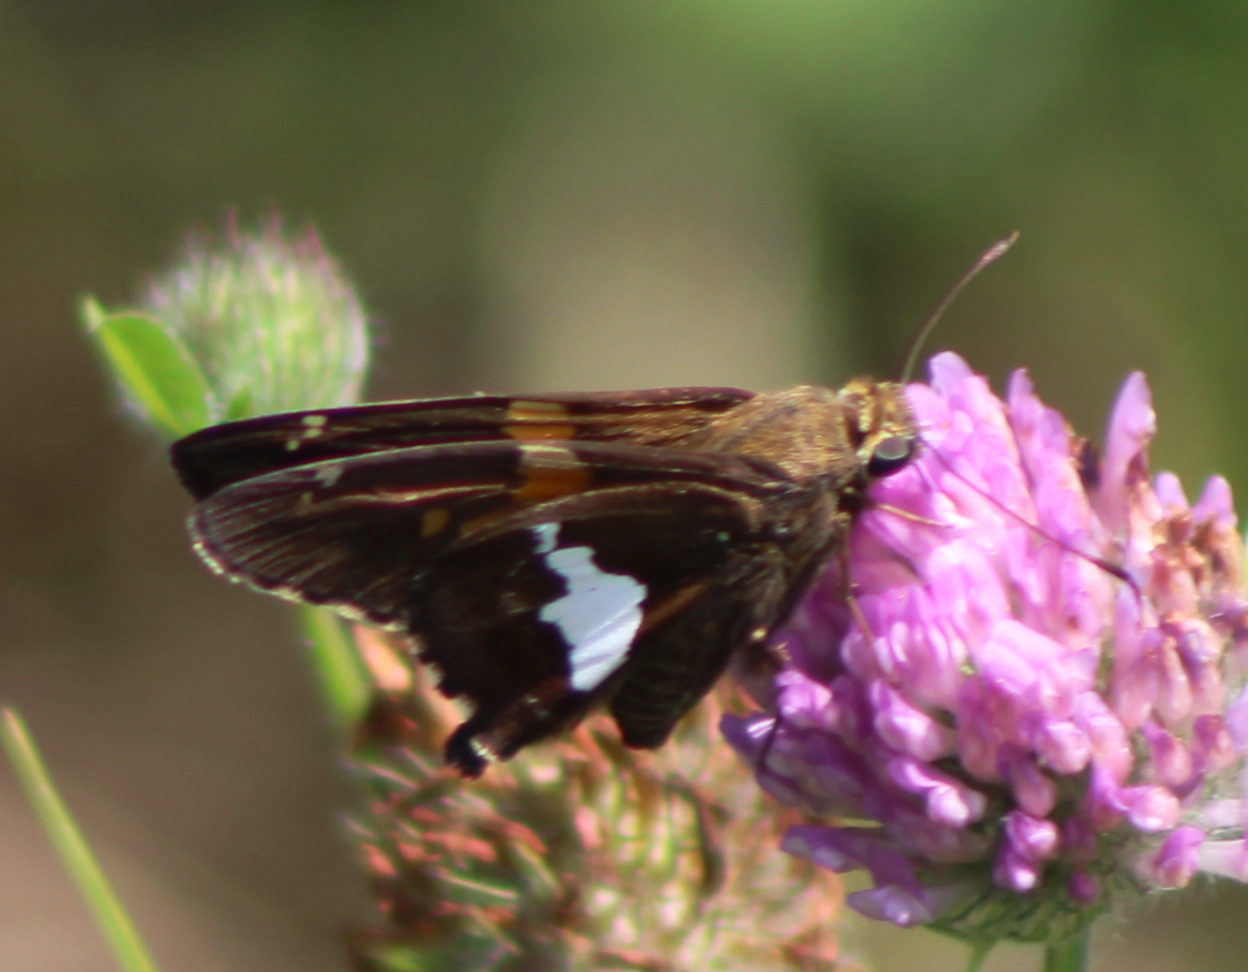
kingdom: Animalia
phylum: Arthropoda
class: Insecta
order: Lepidoptera
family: Hesperiidae
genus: Epargyreus
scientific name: Epargyreus clarus
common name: Silver-spotted skipper
